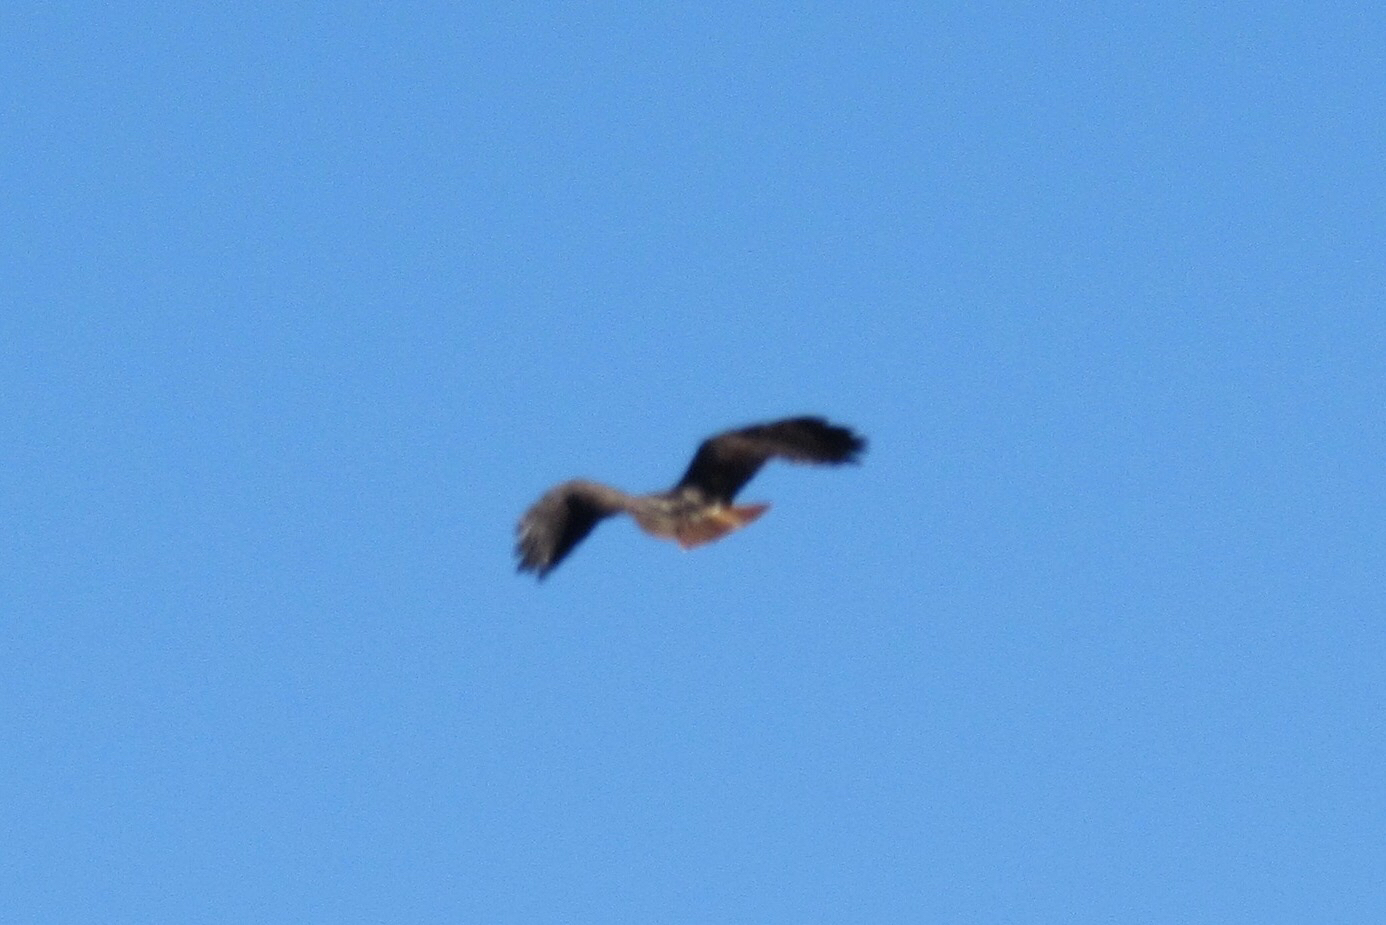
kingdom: Animalia
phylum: Chordata
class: Aves
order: Accipitriformes
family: Accipitridae
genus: Buteo
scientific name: Buteo jamaicensis
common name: Red-tailed hawk
